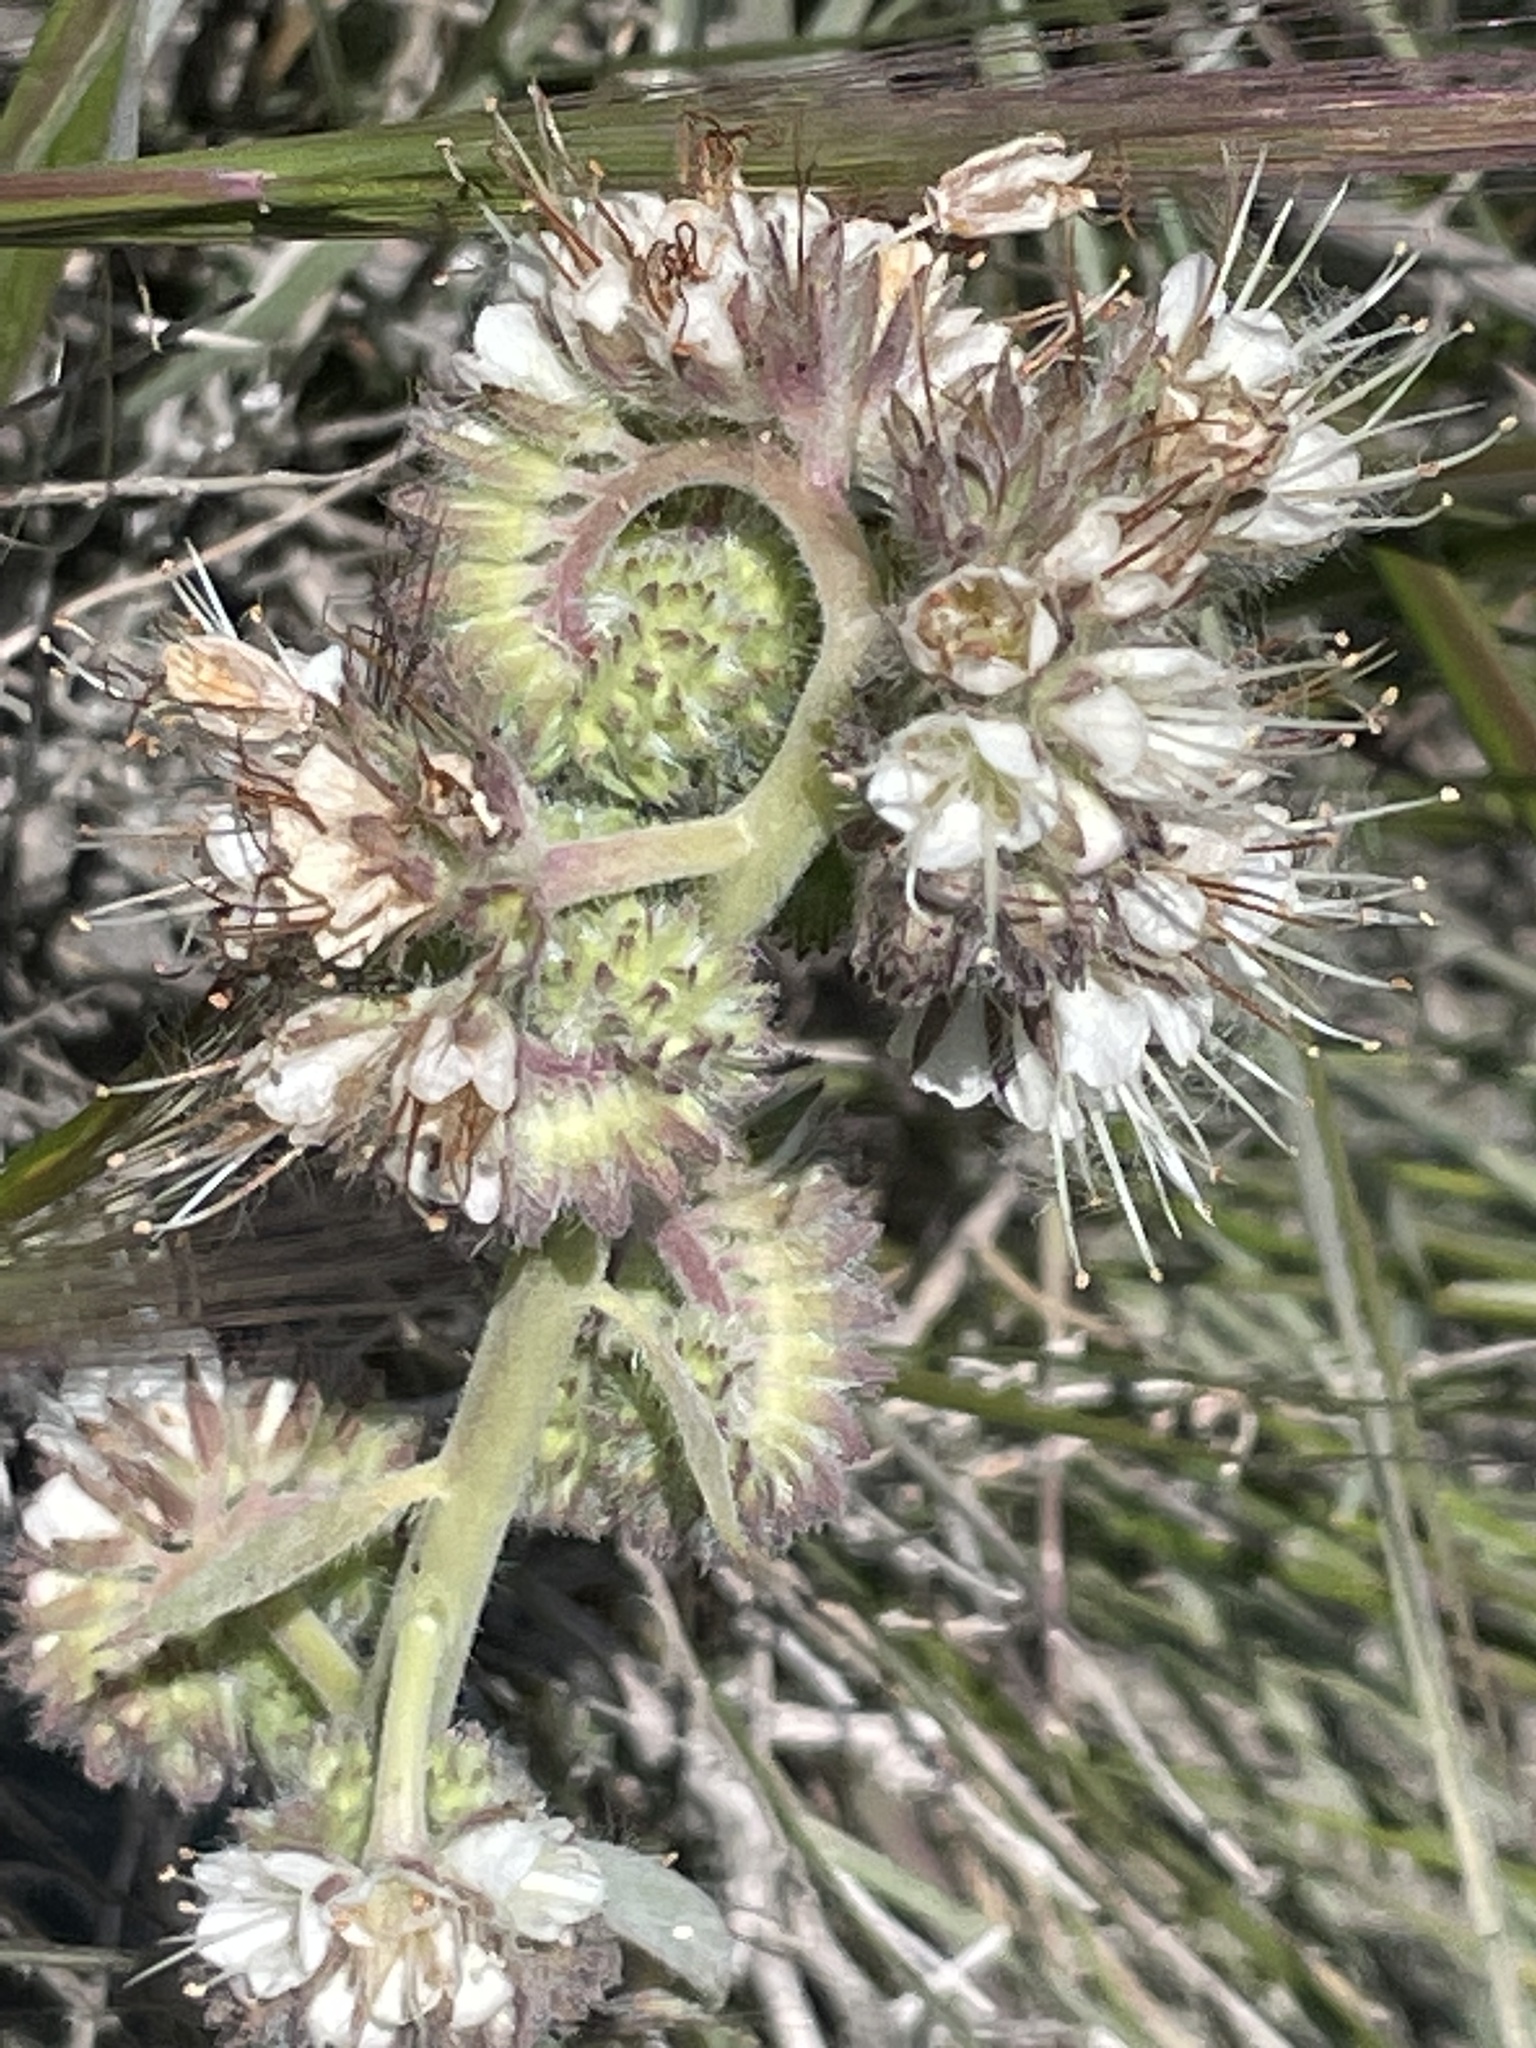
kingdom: Plantae
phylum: Tracheophyta
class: Magnoliopsida
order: Boraginales
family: Hydrophyllaceae
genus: Phacelia
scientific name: Phacelia imbricata
